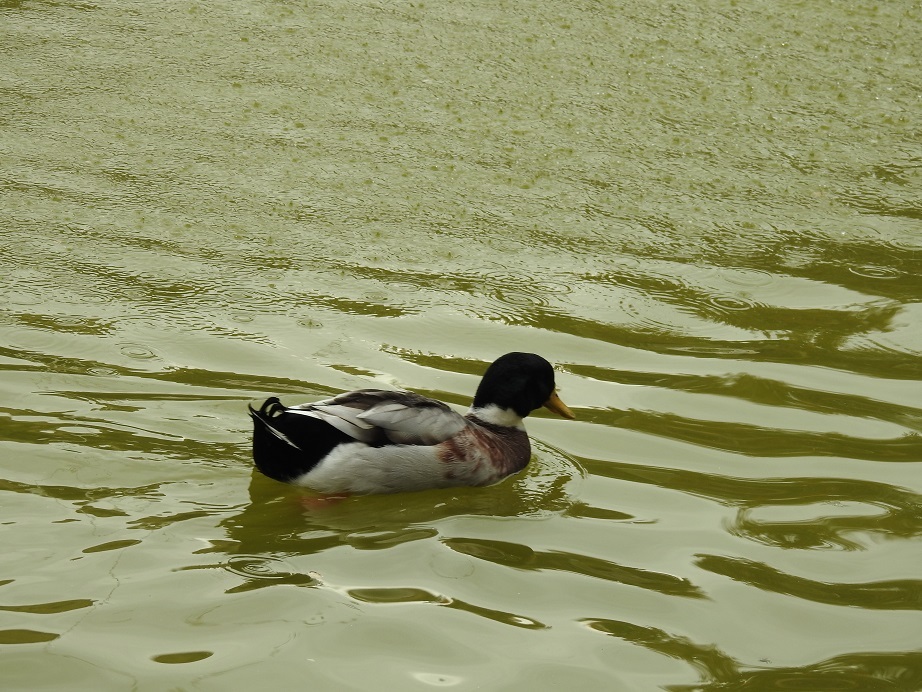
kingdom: Animalia
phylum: Chordata
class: Aves
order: Anseriformes
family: Anatidae
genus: Anas
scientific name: Anas platyrhynchos
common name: Mallard
